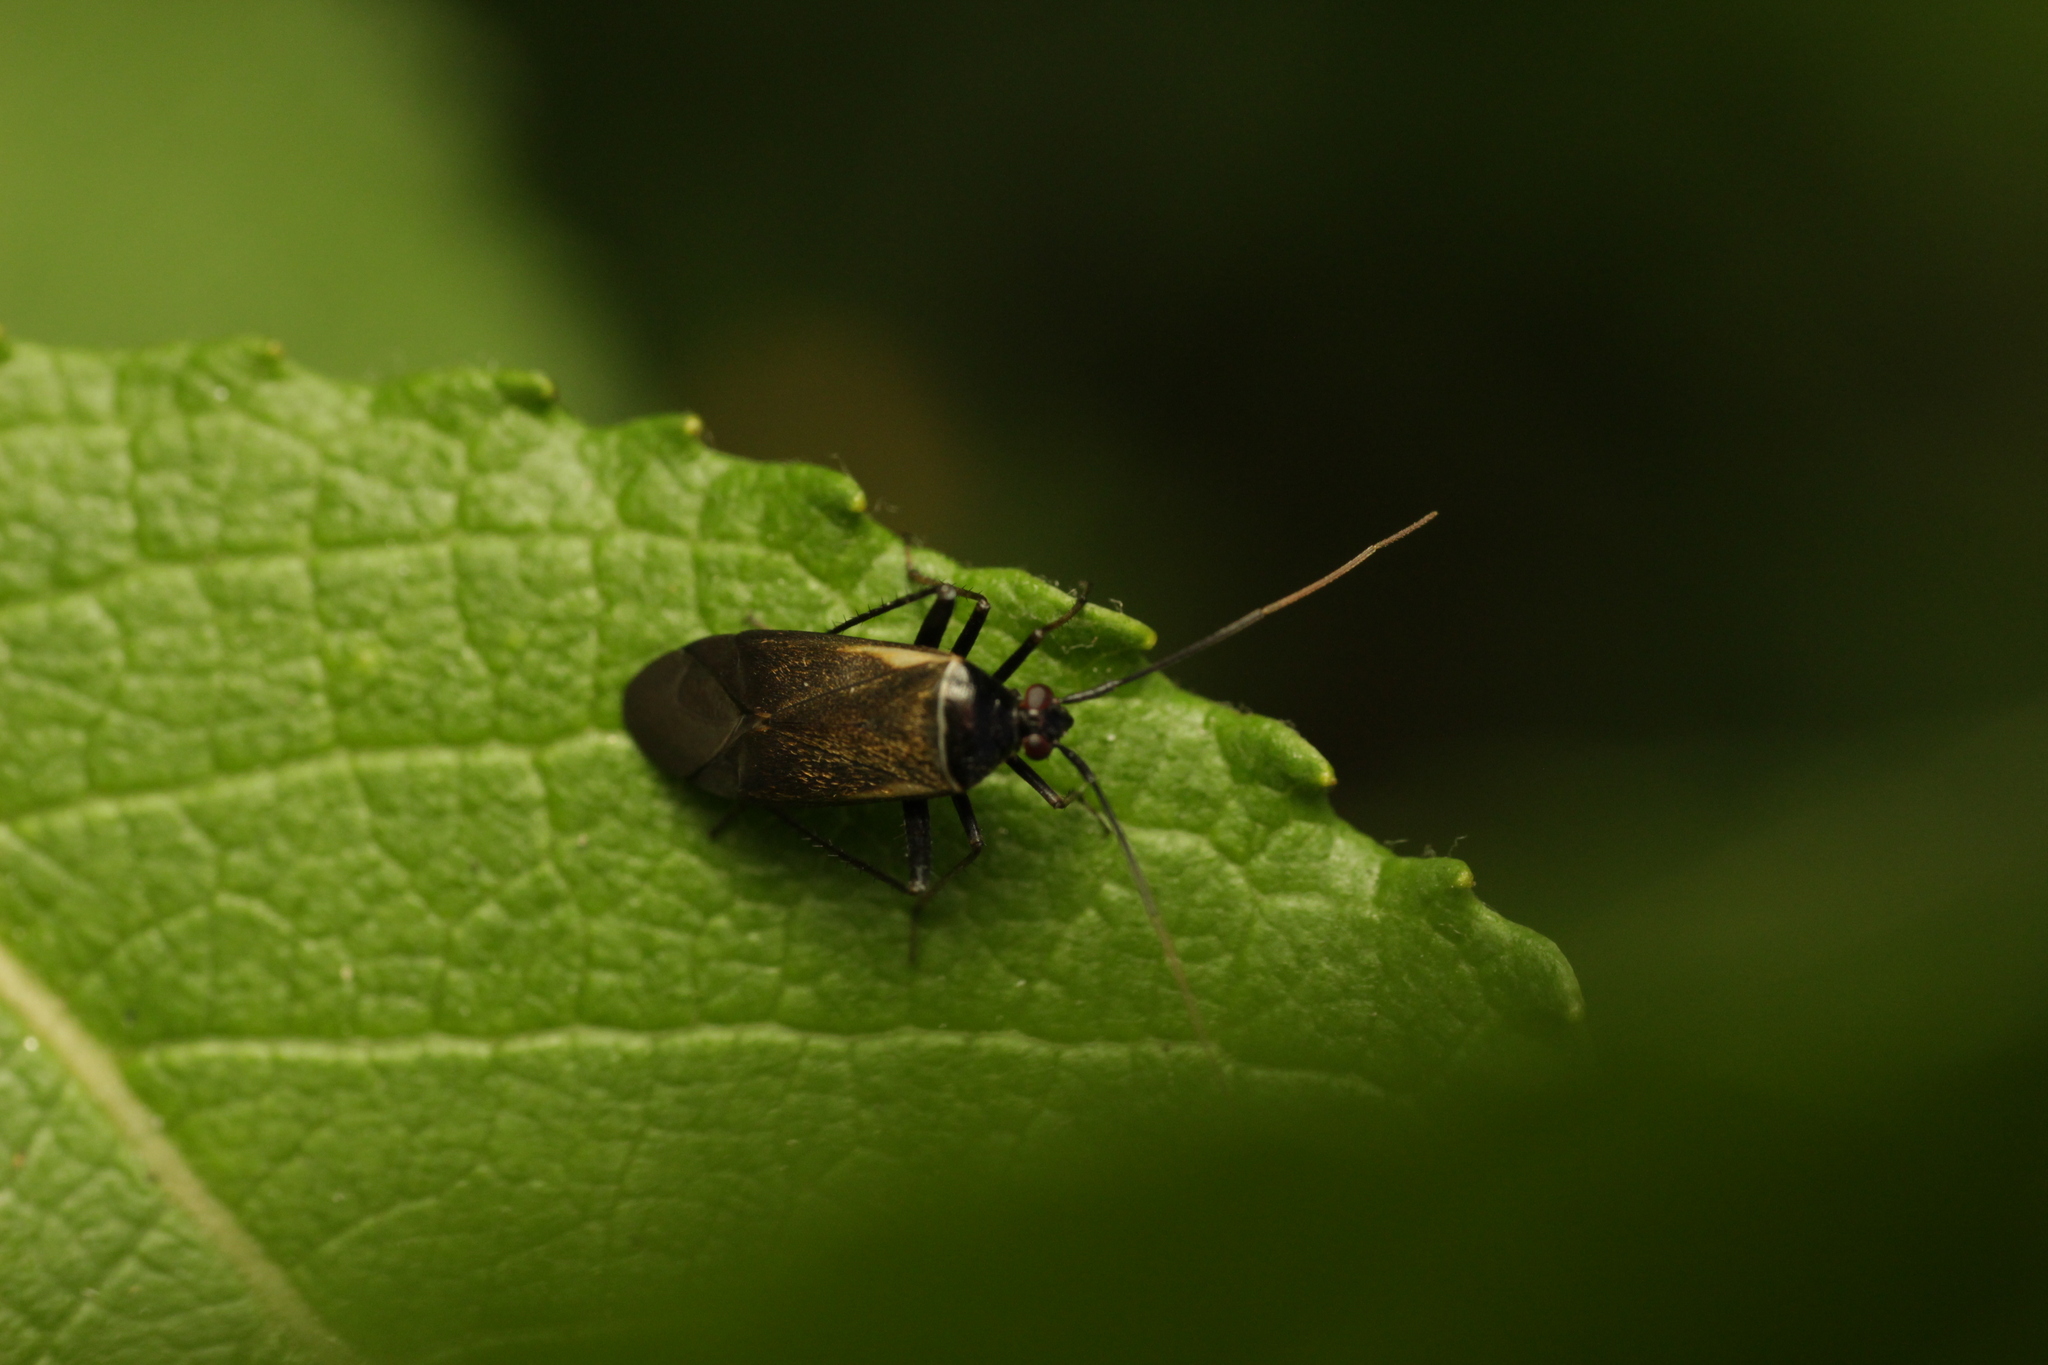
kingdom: Animalia
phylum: Arthropoda
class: Insecta
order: Hemiptera
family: Miridae
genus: Adelphocoris
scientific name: Adelphocoris seticornis
